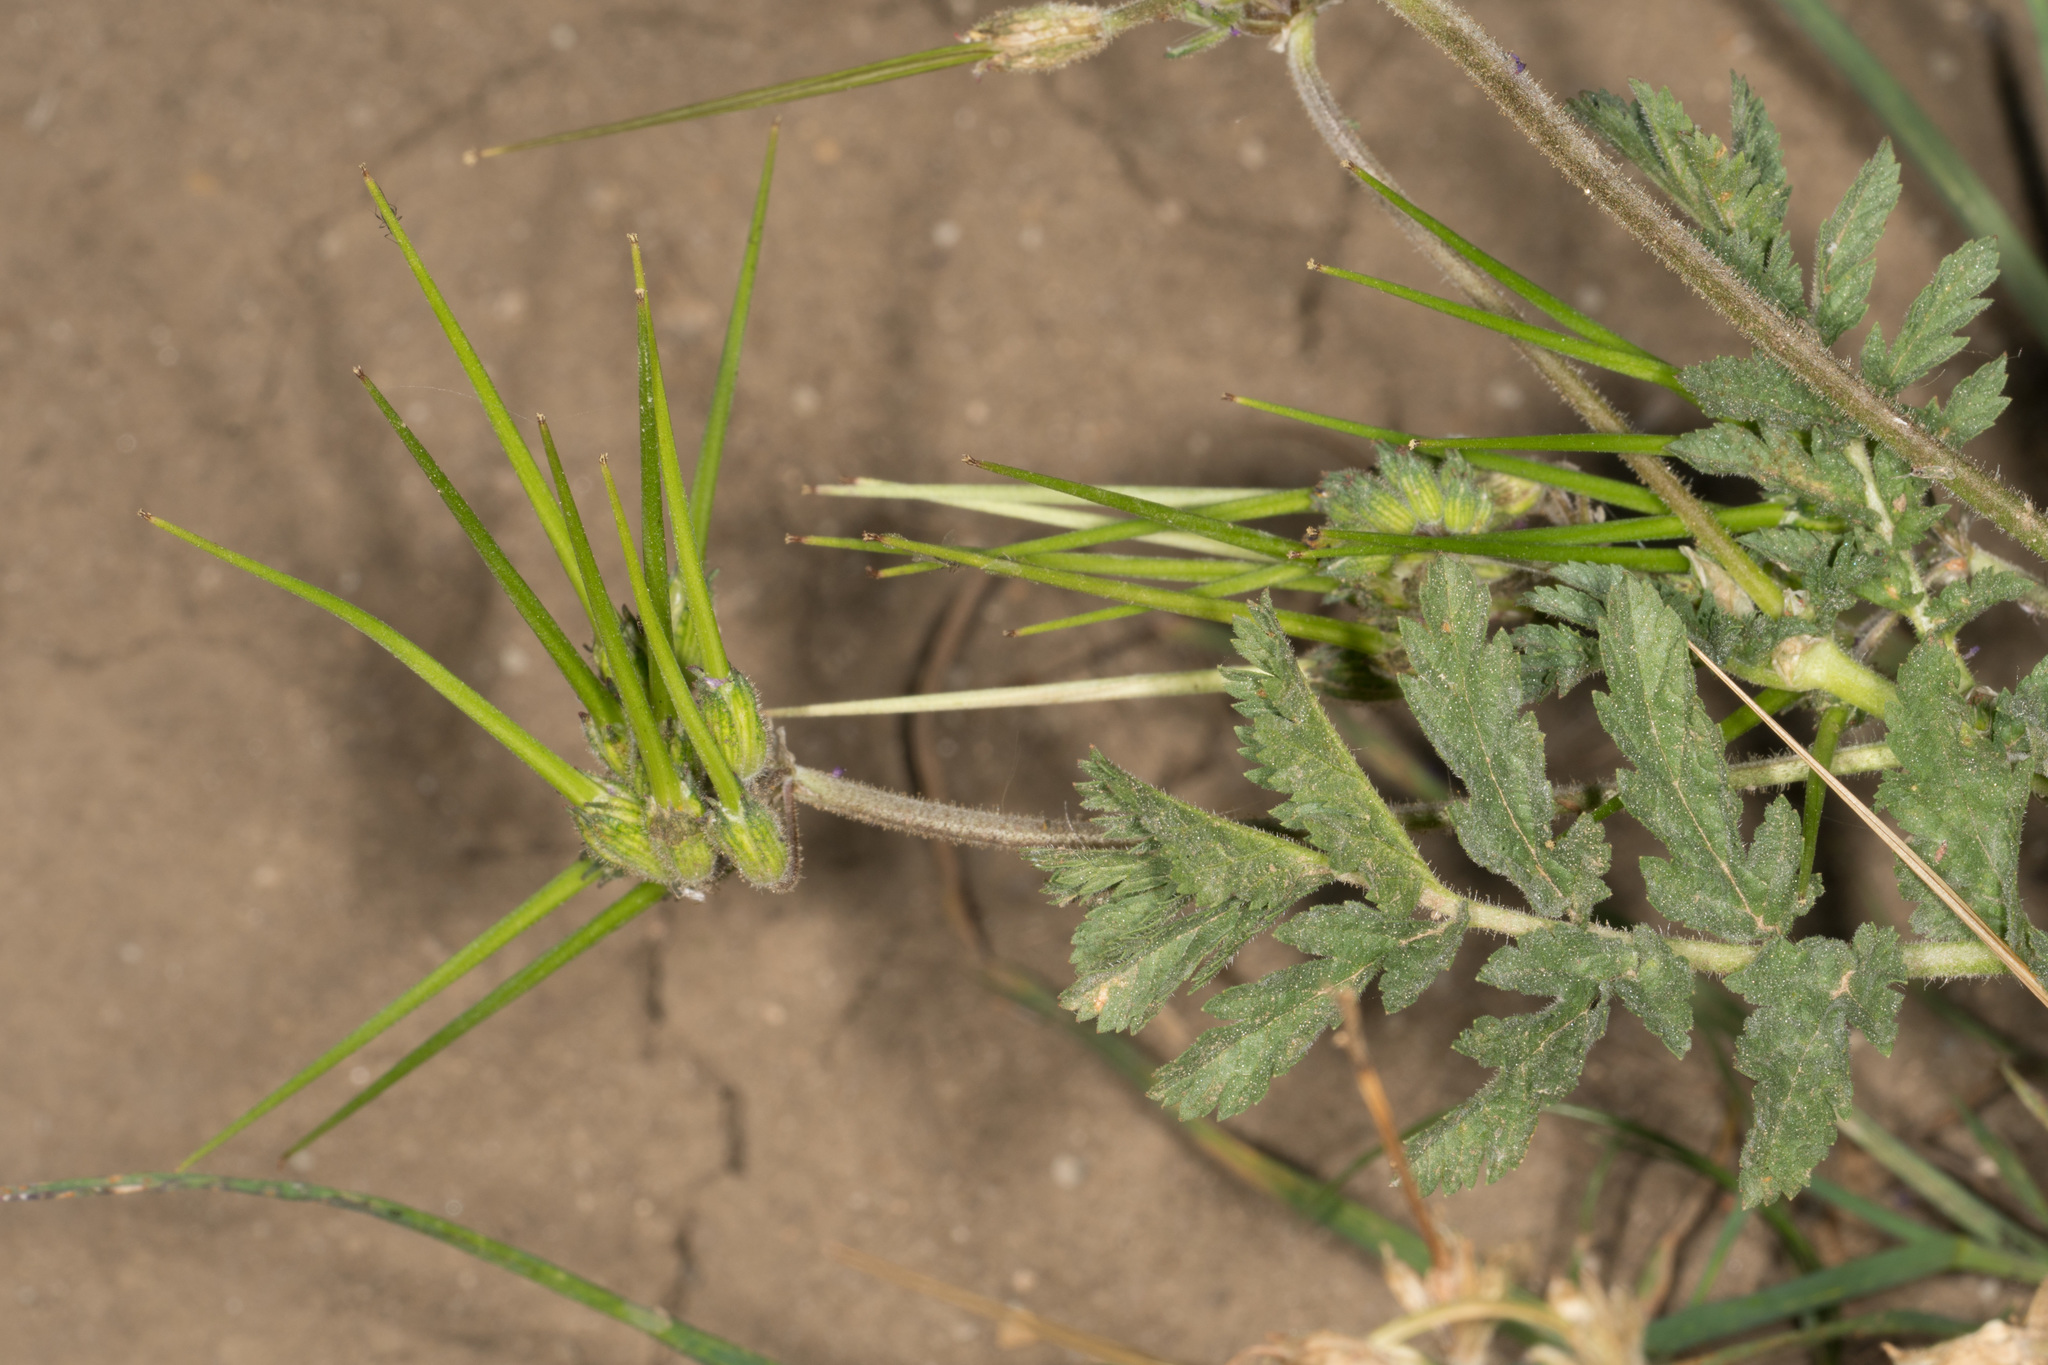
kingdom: Plantae
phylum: Tracheophyta
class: Magnoliopsida
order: Geraniales
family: Geraniaceae
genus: Erodium
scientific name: Erodium moschatum
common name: Musk stork's-bill
